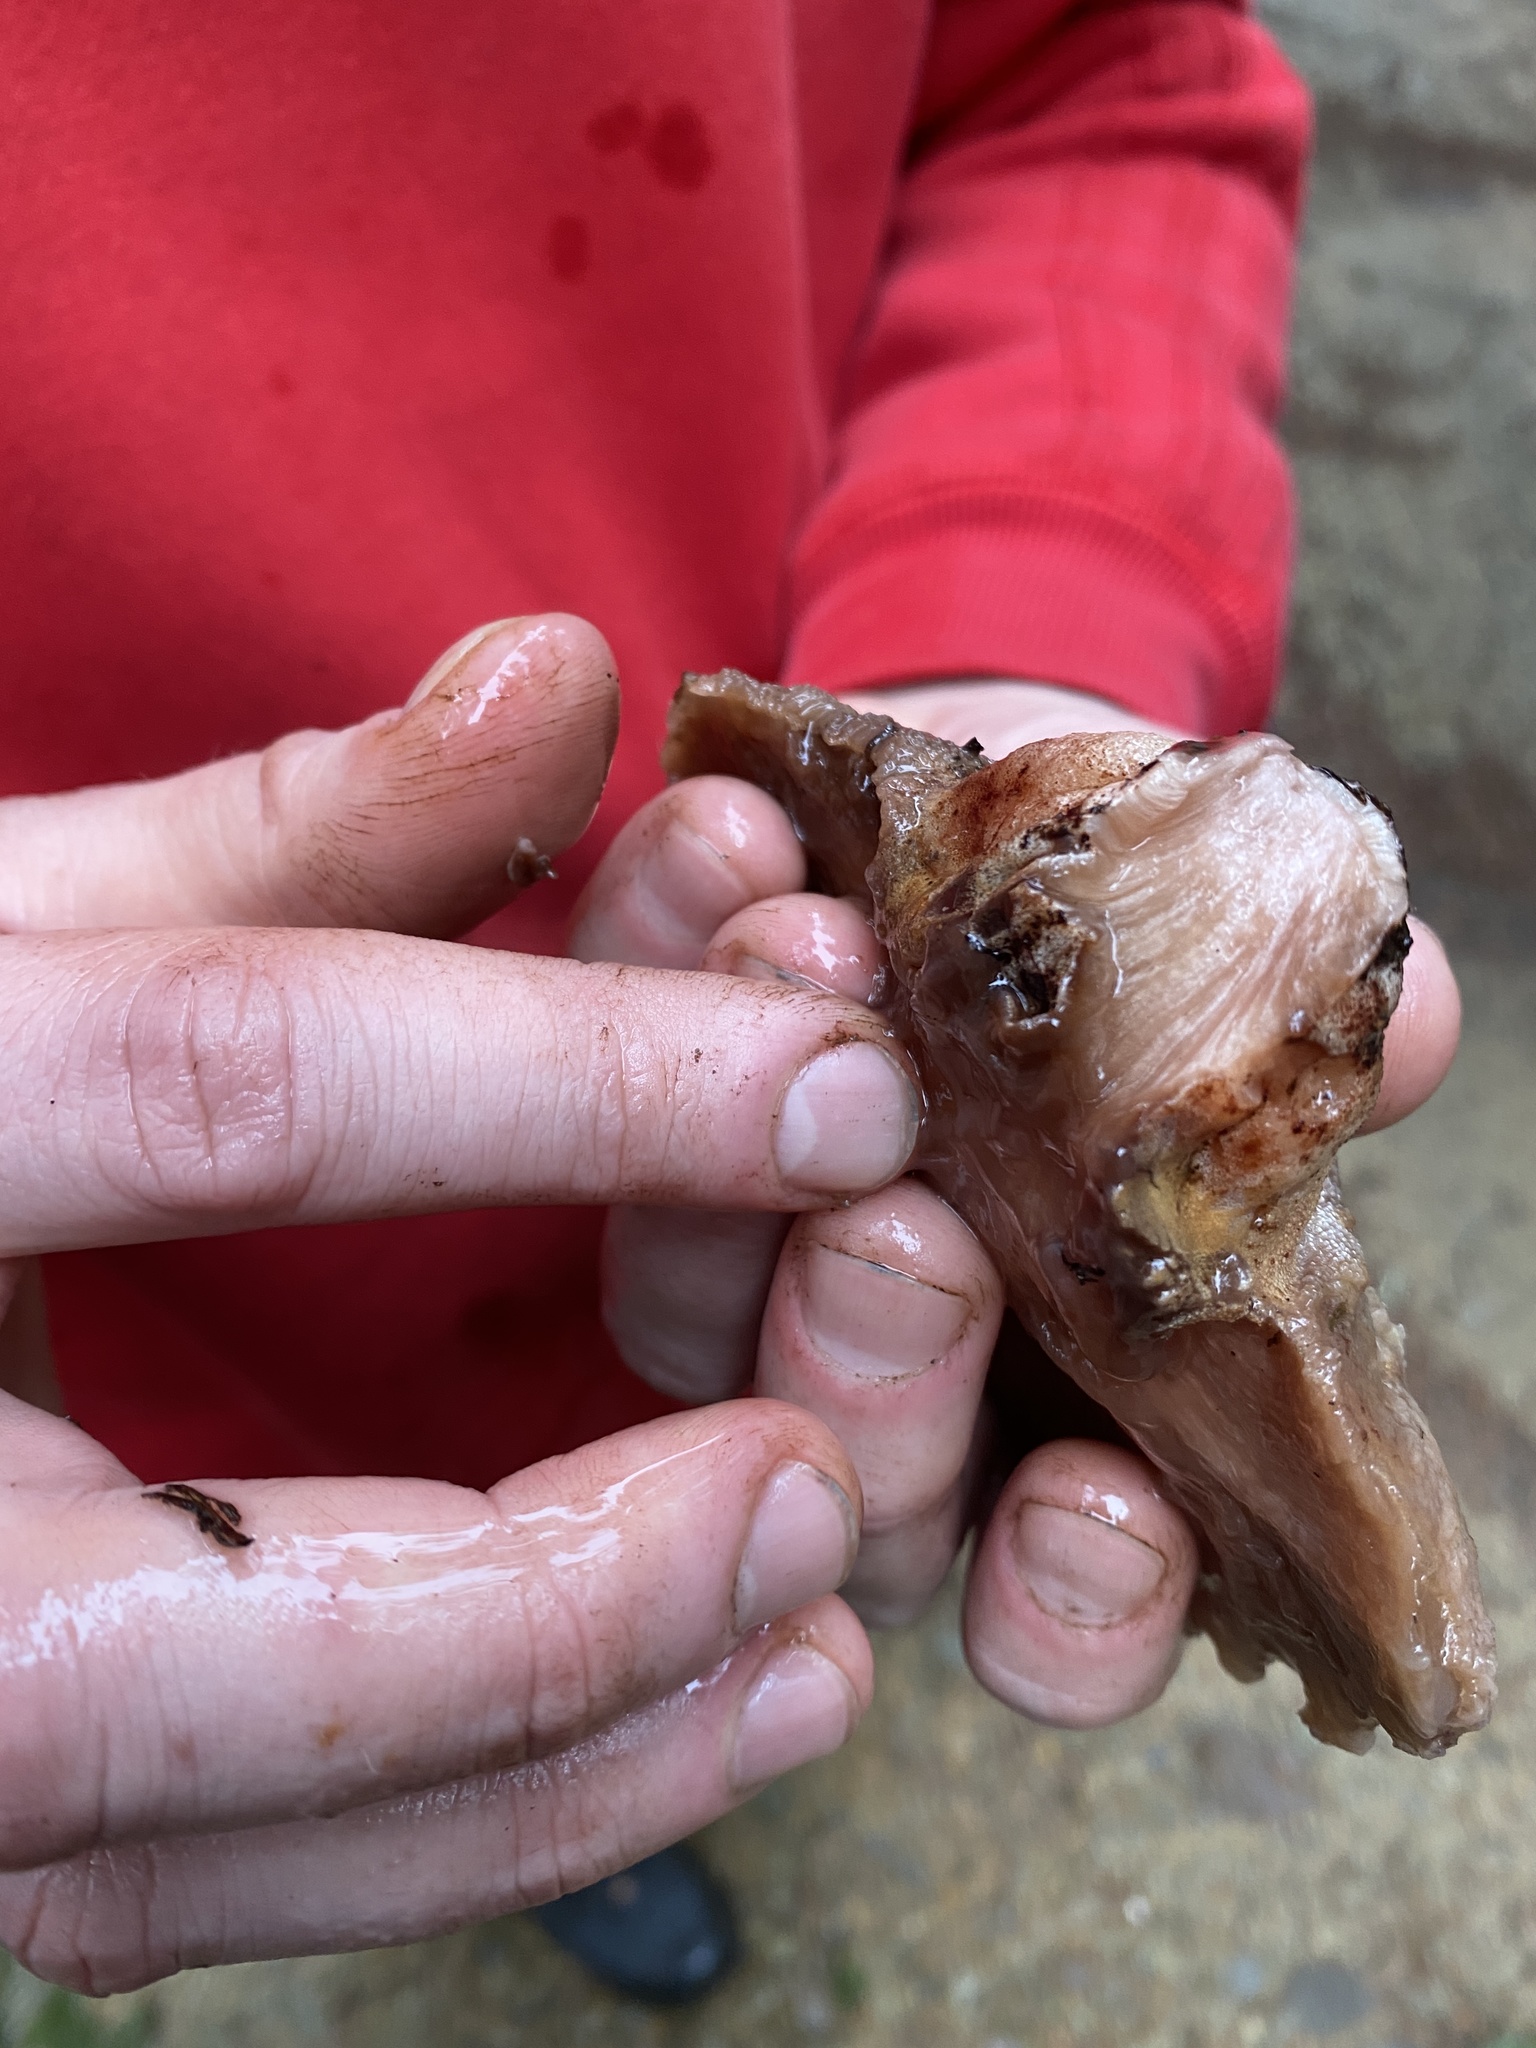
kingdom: Fungi
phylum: Basidiomycota
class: Agaricomycetes
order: Agaricales
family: Fistulinaceae
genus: Fistulina
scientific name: Fistulina hepatica
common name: Beef-steak fungus
